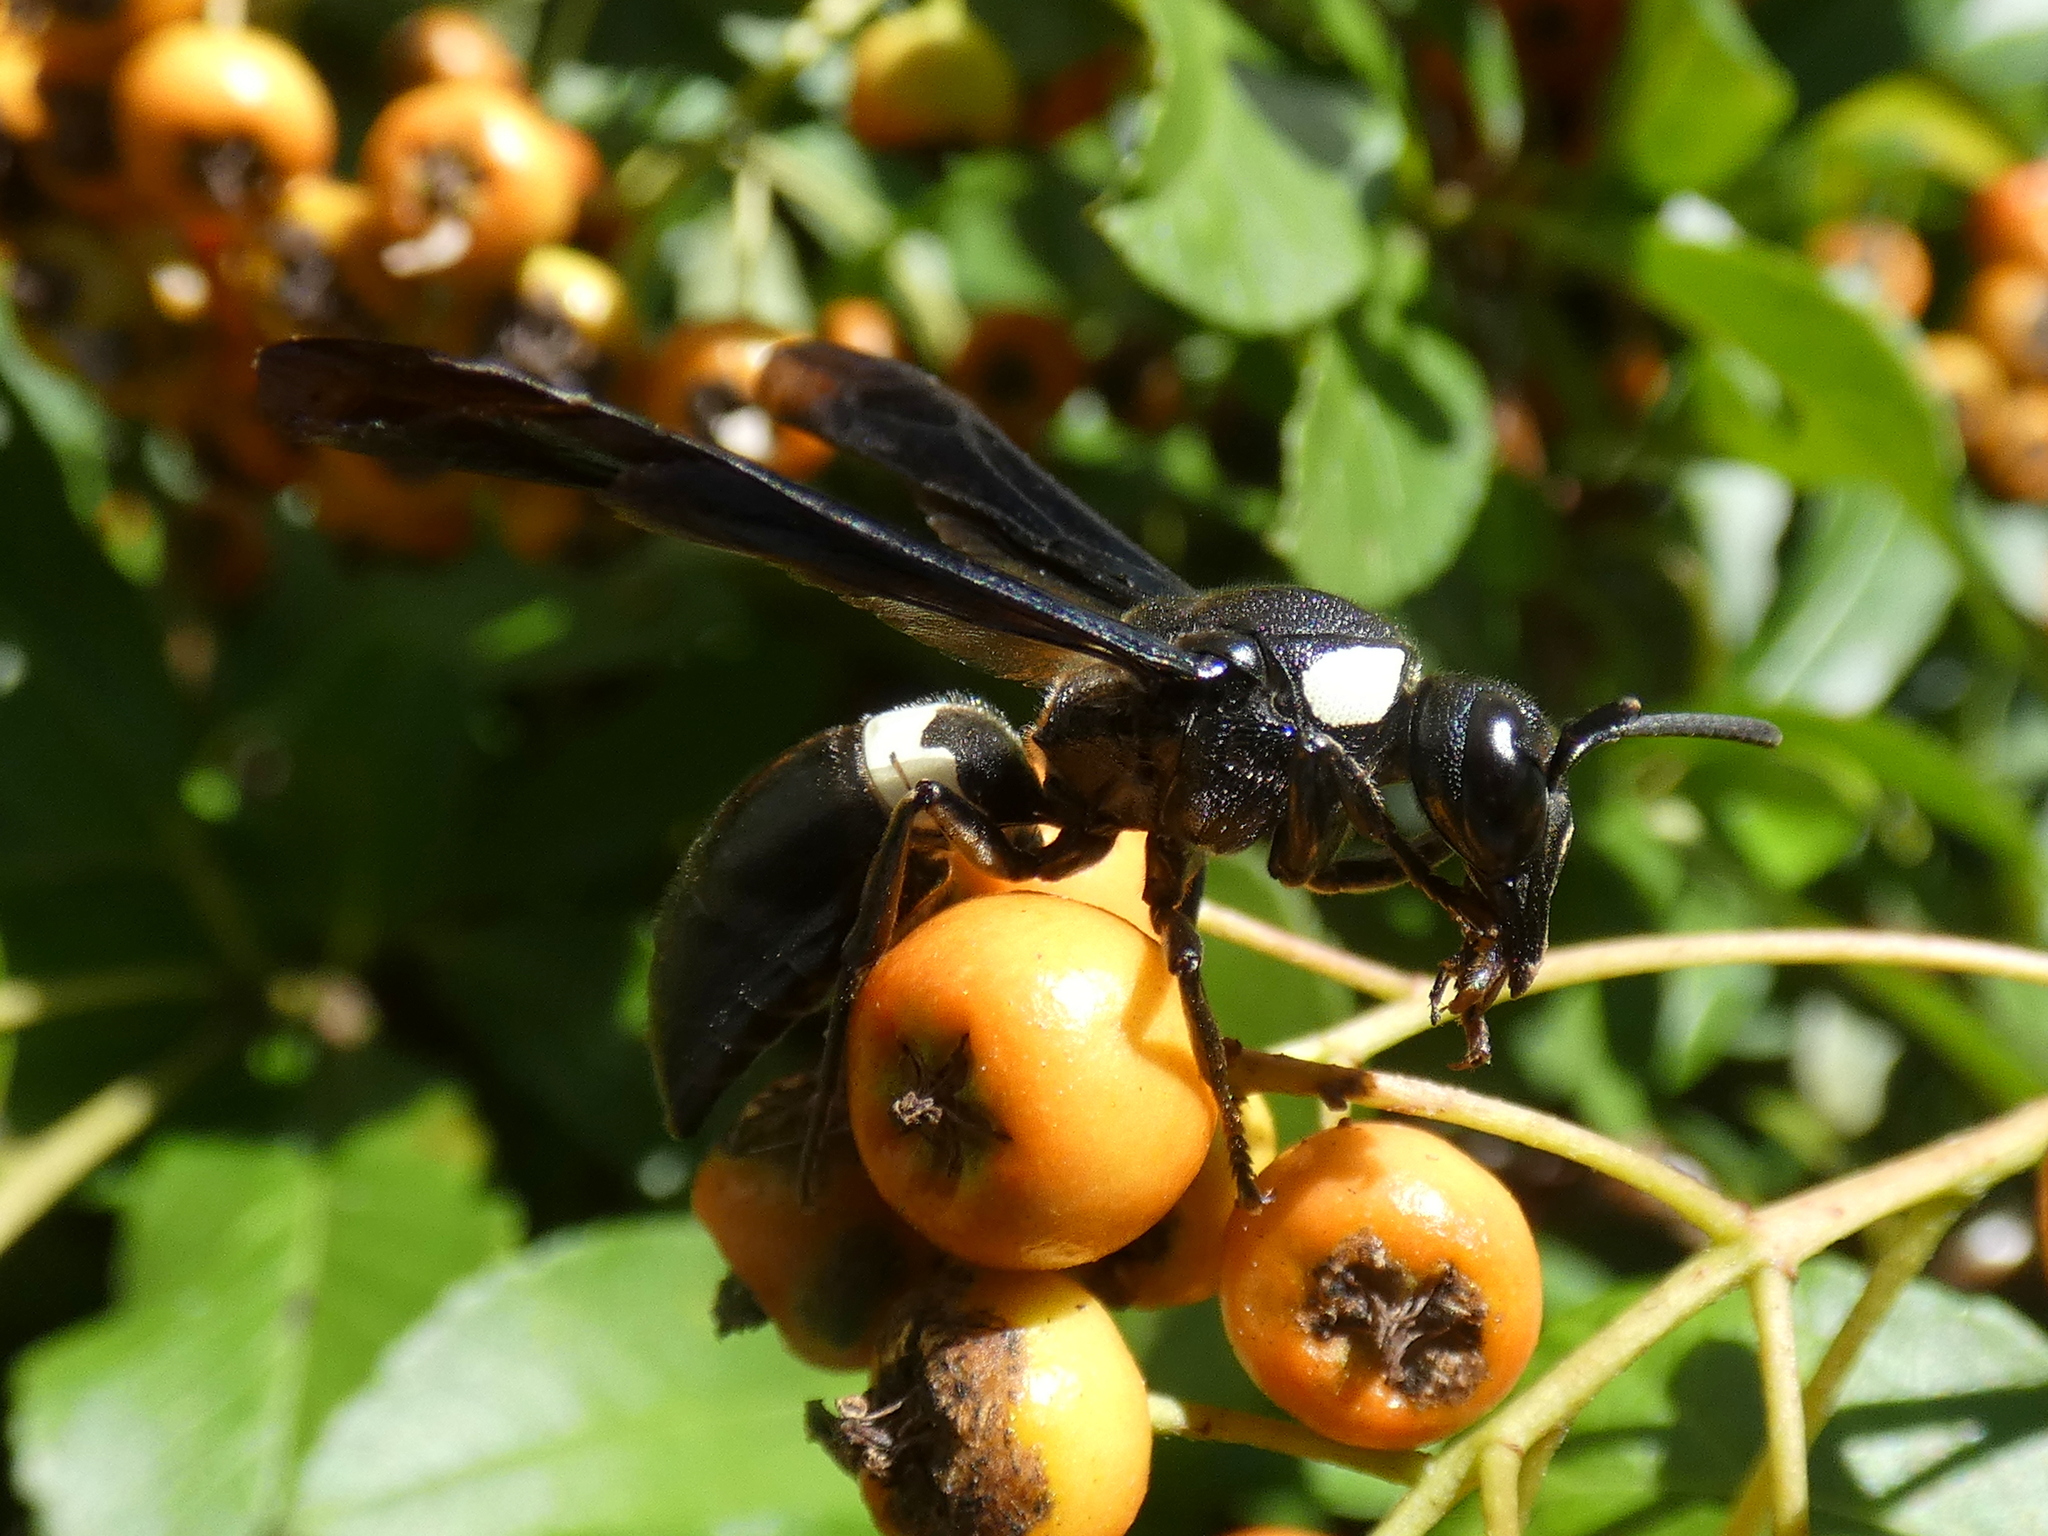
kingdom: Animalia
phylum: Arthropoda
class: Insecta
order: Hymenoptera
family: Eumenidae
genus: Monobia
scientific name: Monobia quadridens
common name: Four-toothed mason wasp
